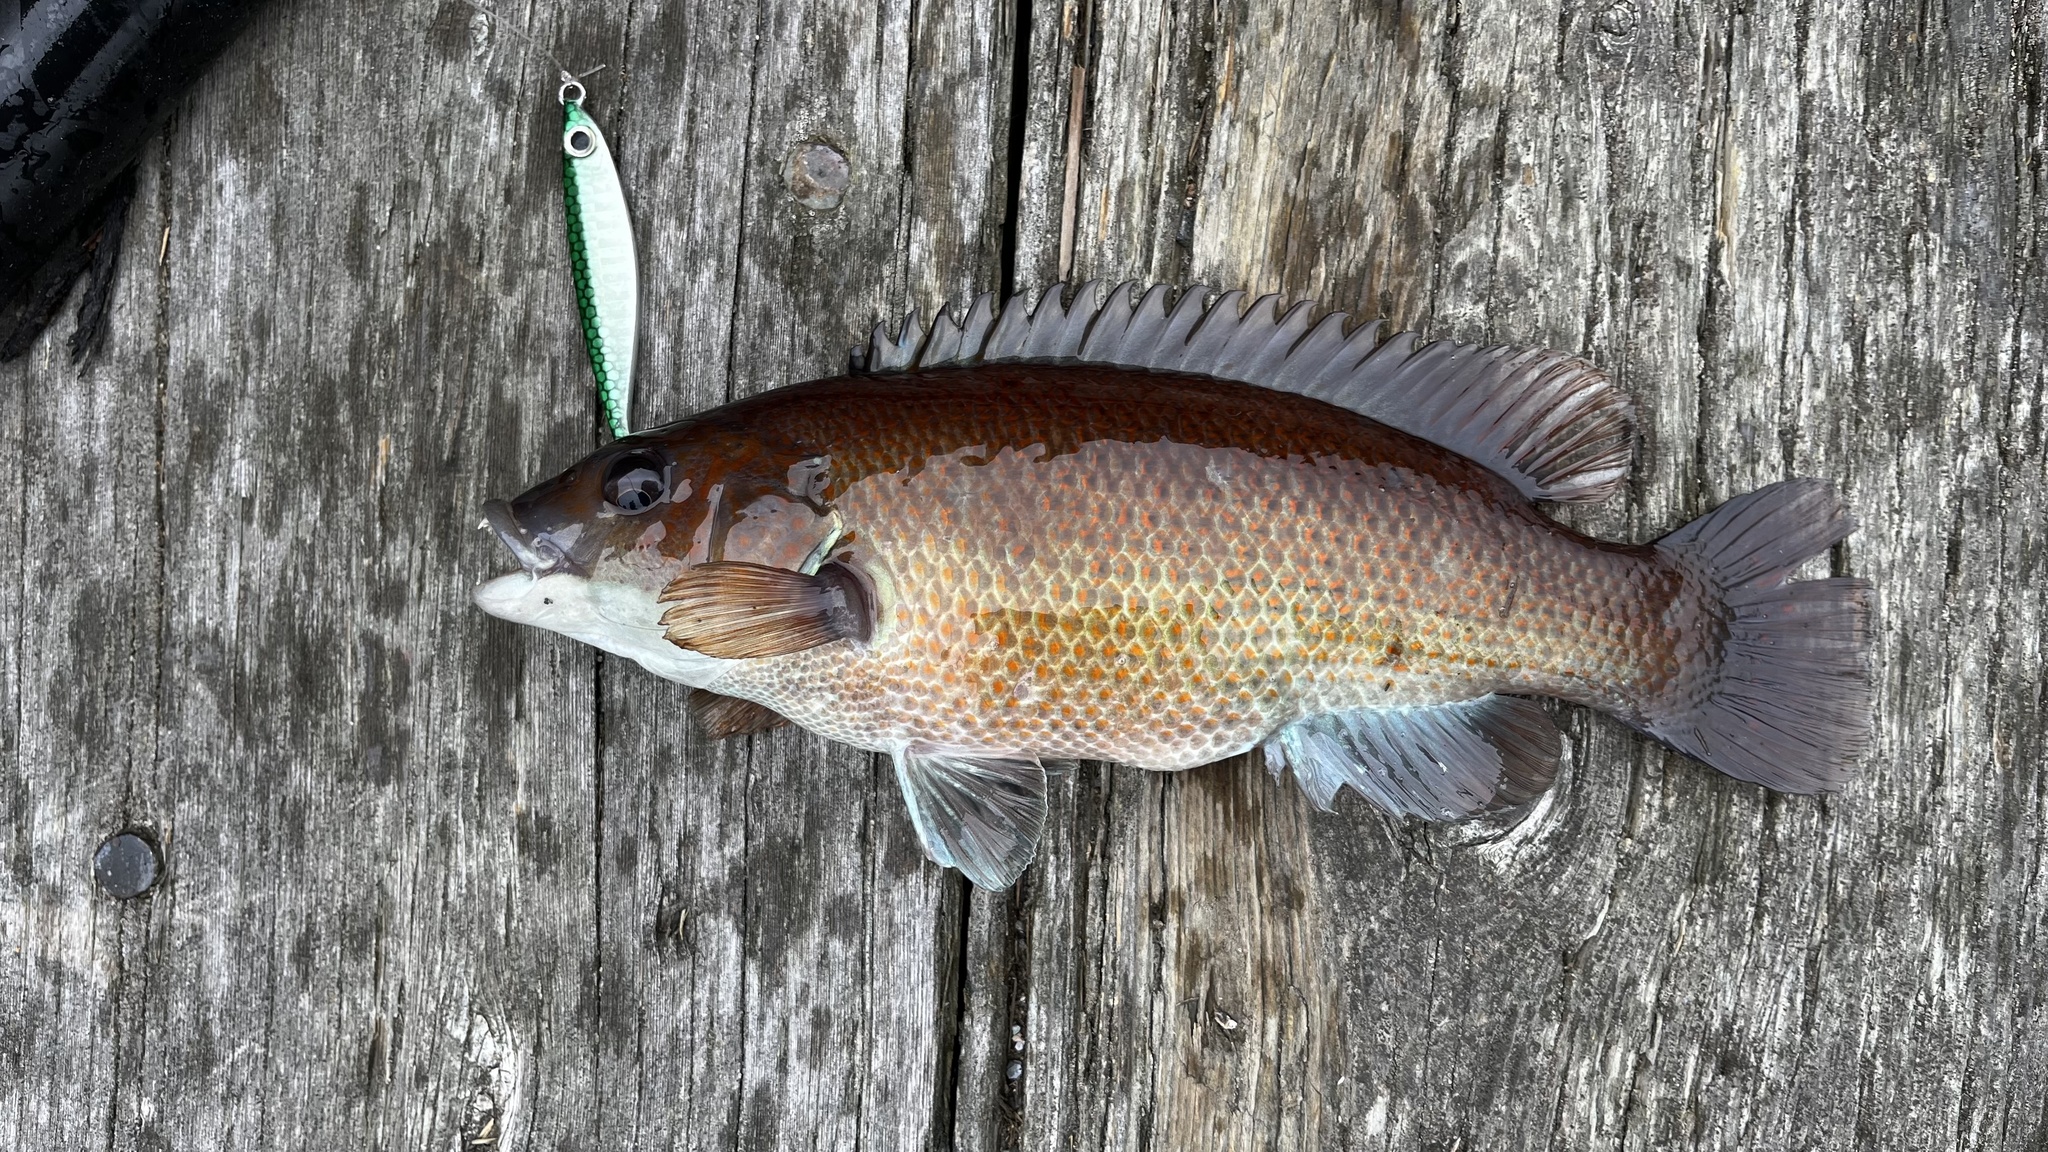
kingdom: Animalia
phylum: Chordata
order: Perciformes
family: Labridae
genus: Tautogolabrus
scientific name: Tautogolabrus adspersus
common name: Cunner
